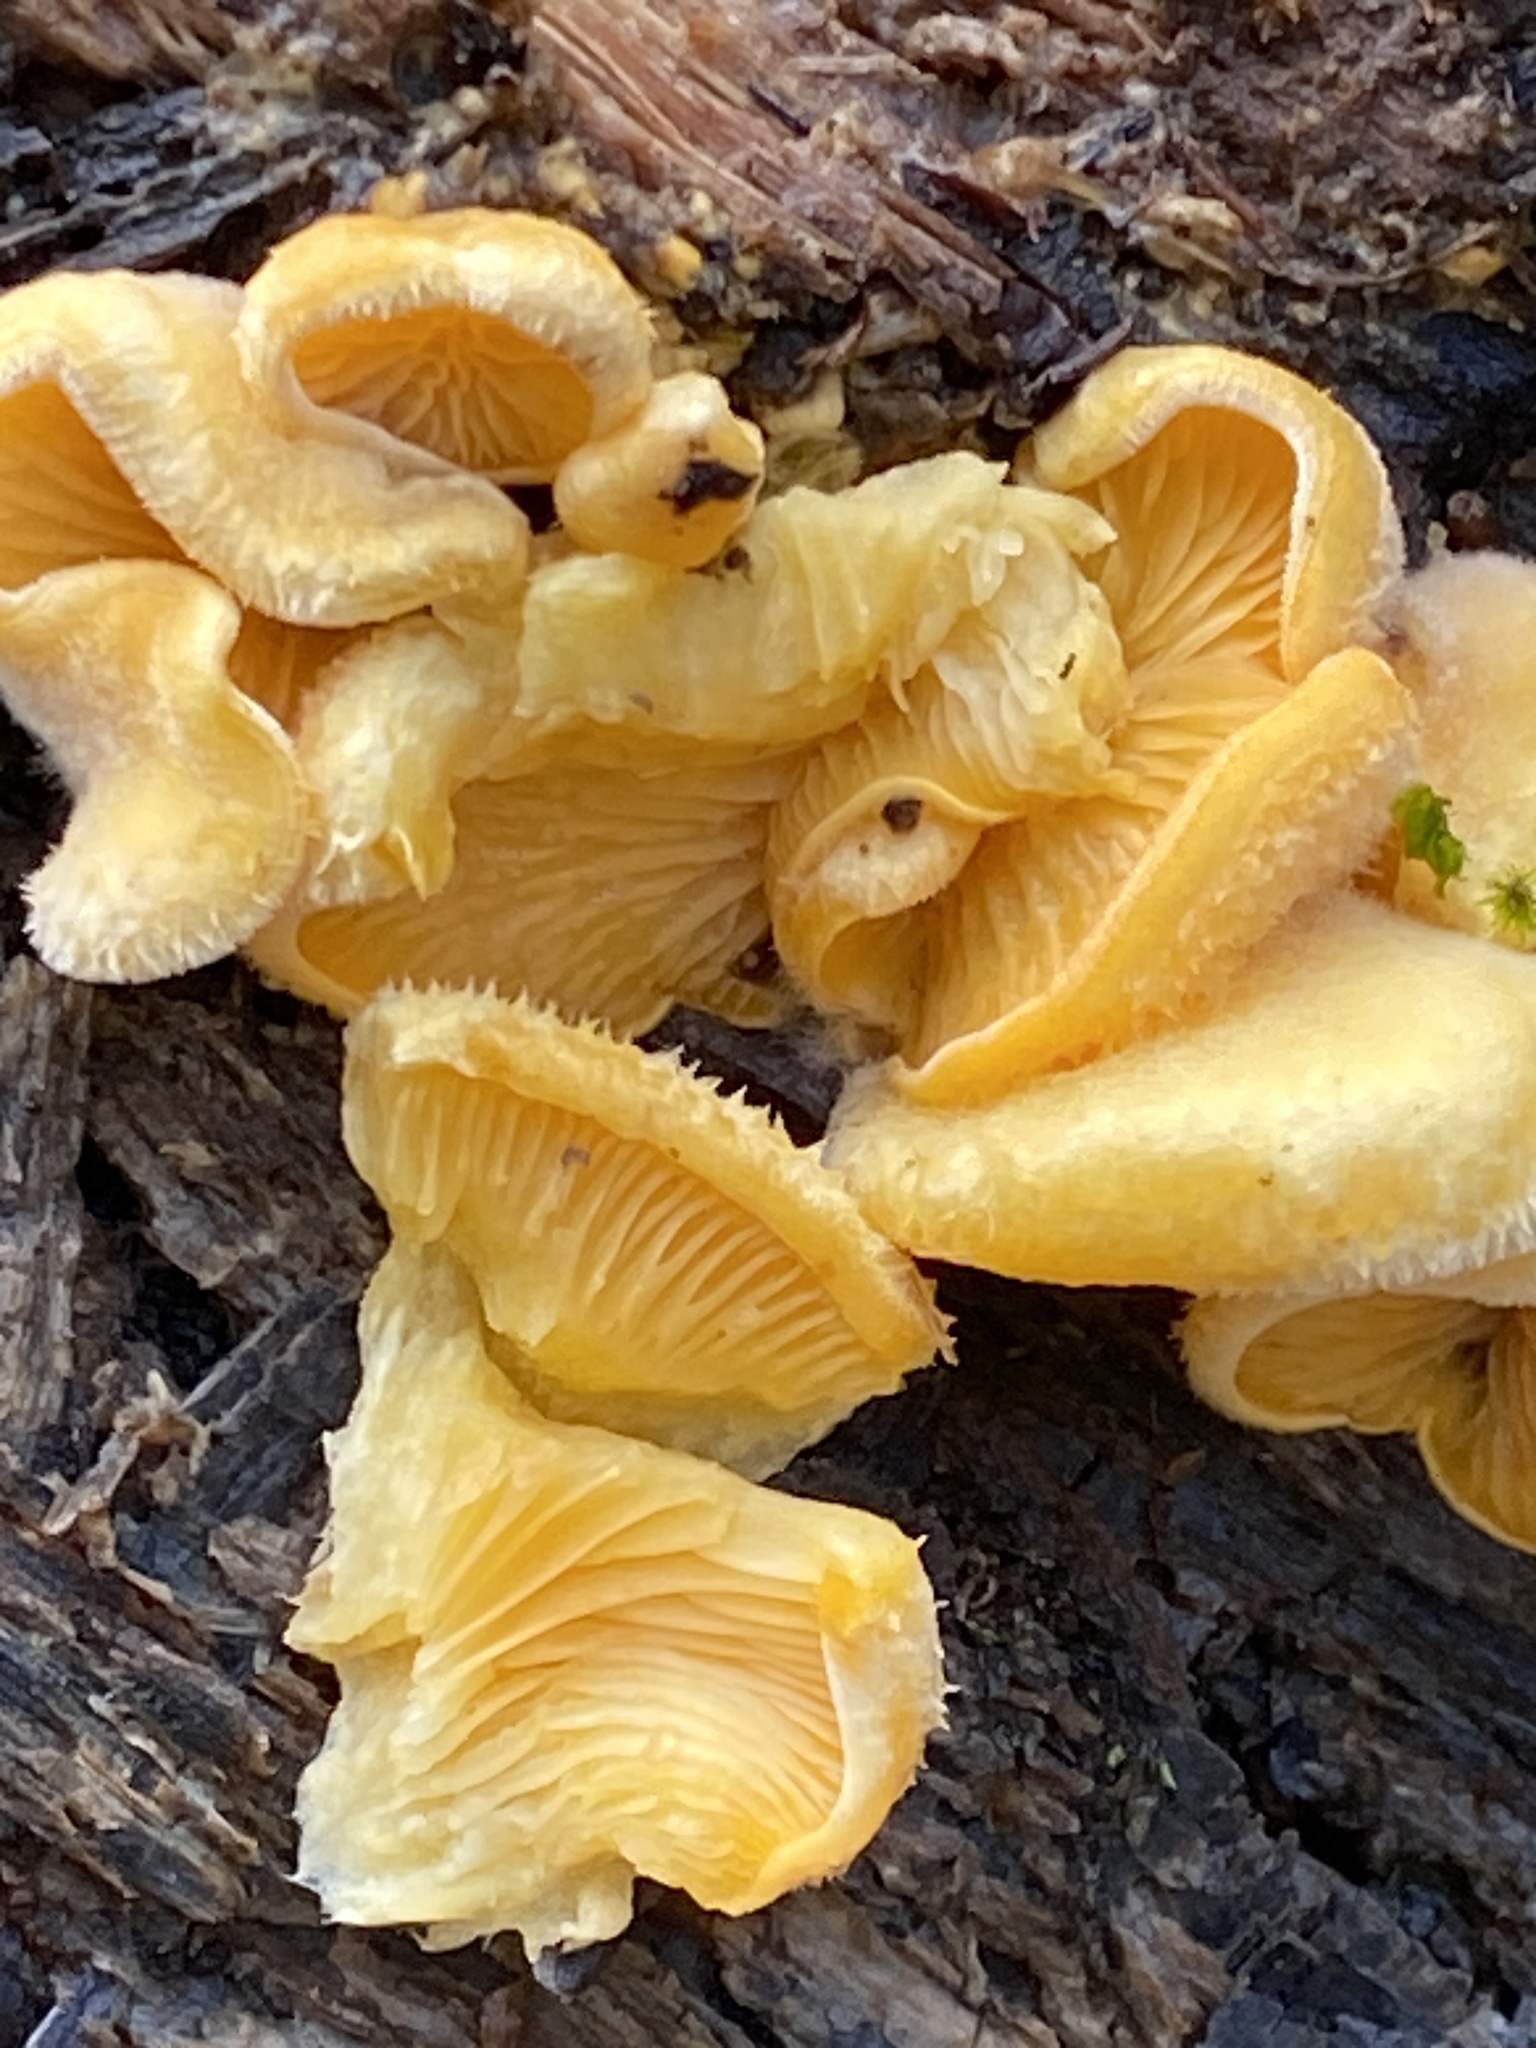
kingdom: Fungi
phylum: Basidiomycota
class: Agaricomycetes
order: Agaricales
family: Phyllotopsidaceae
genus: Phyllotopsis
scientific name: Phyllotopsis nidulans
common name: Orange mock oyster
